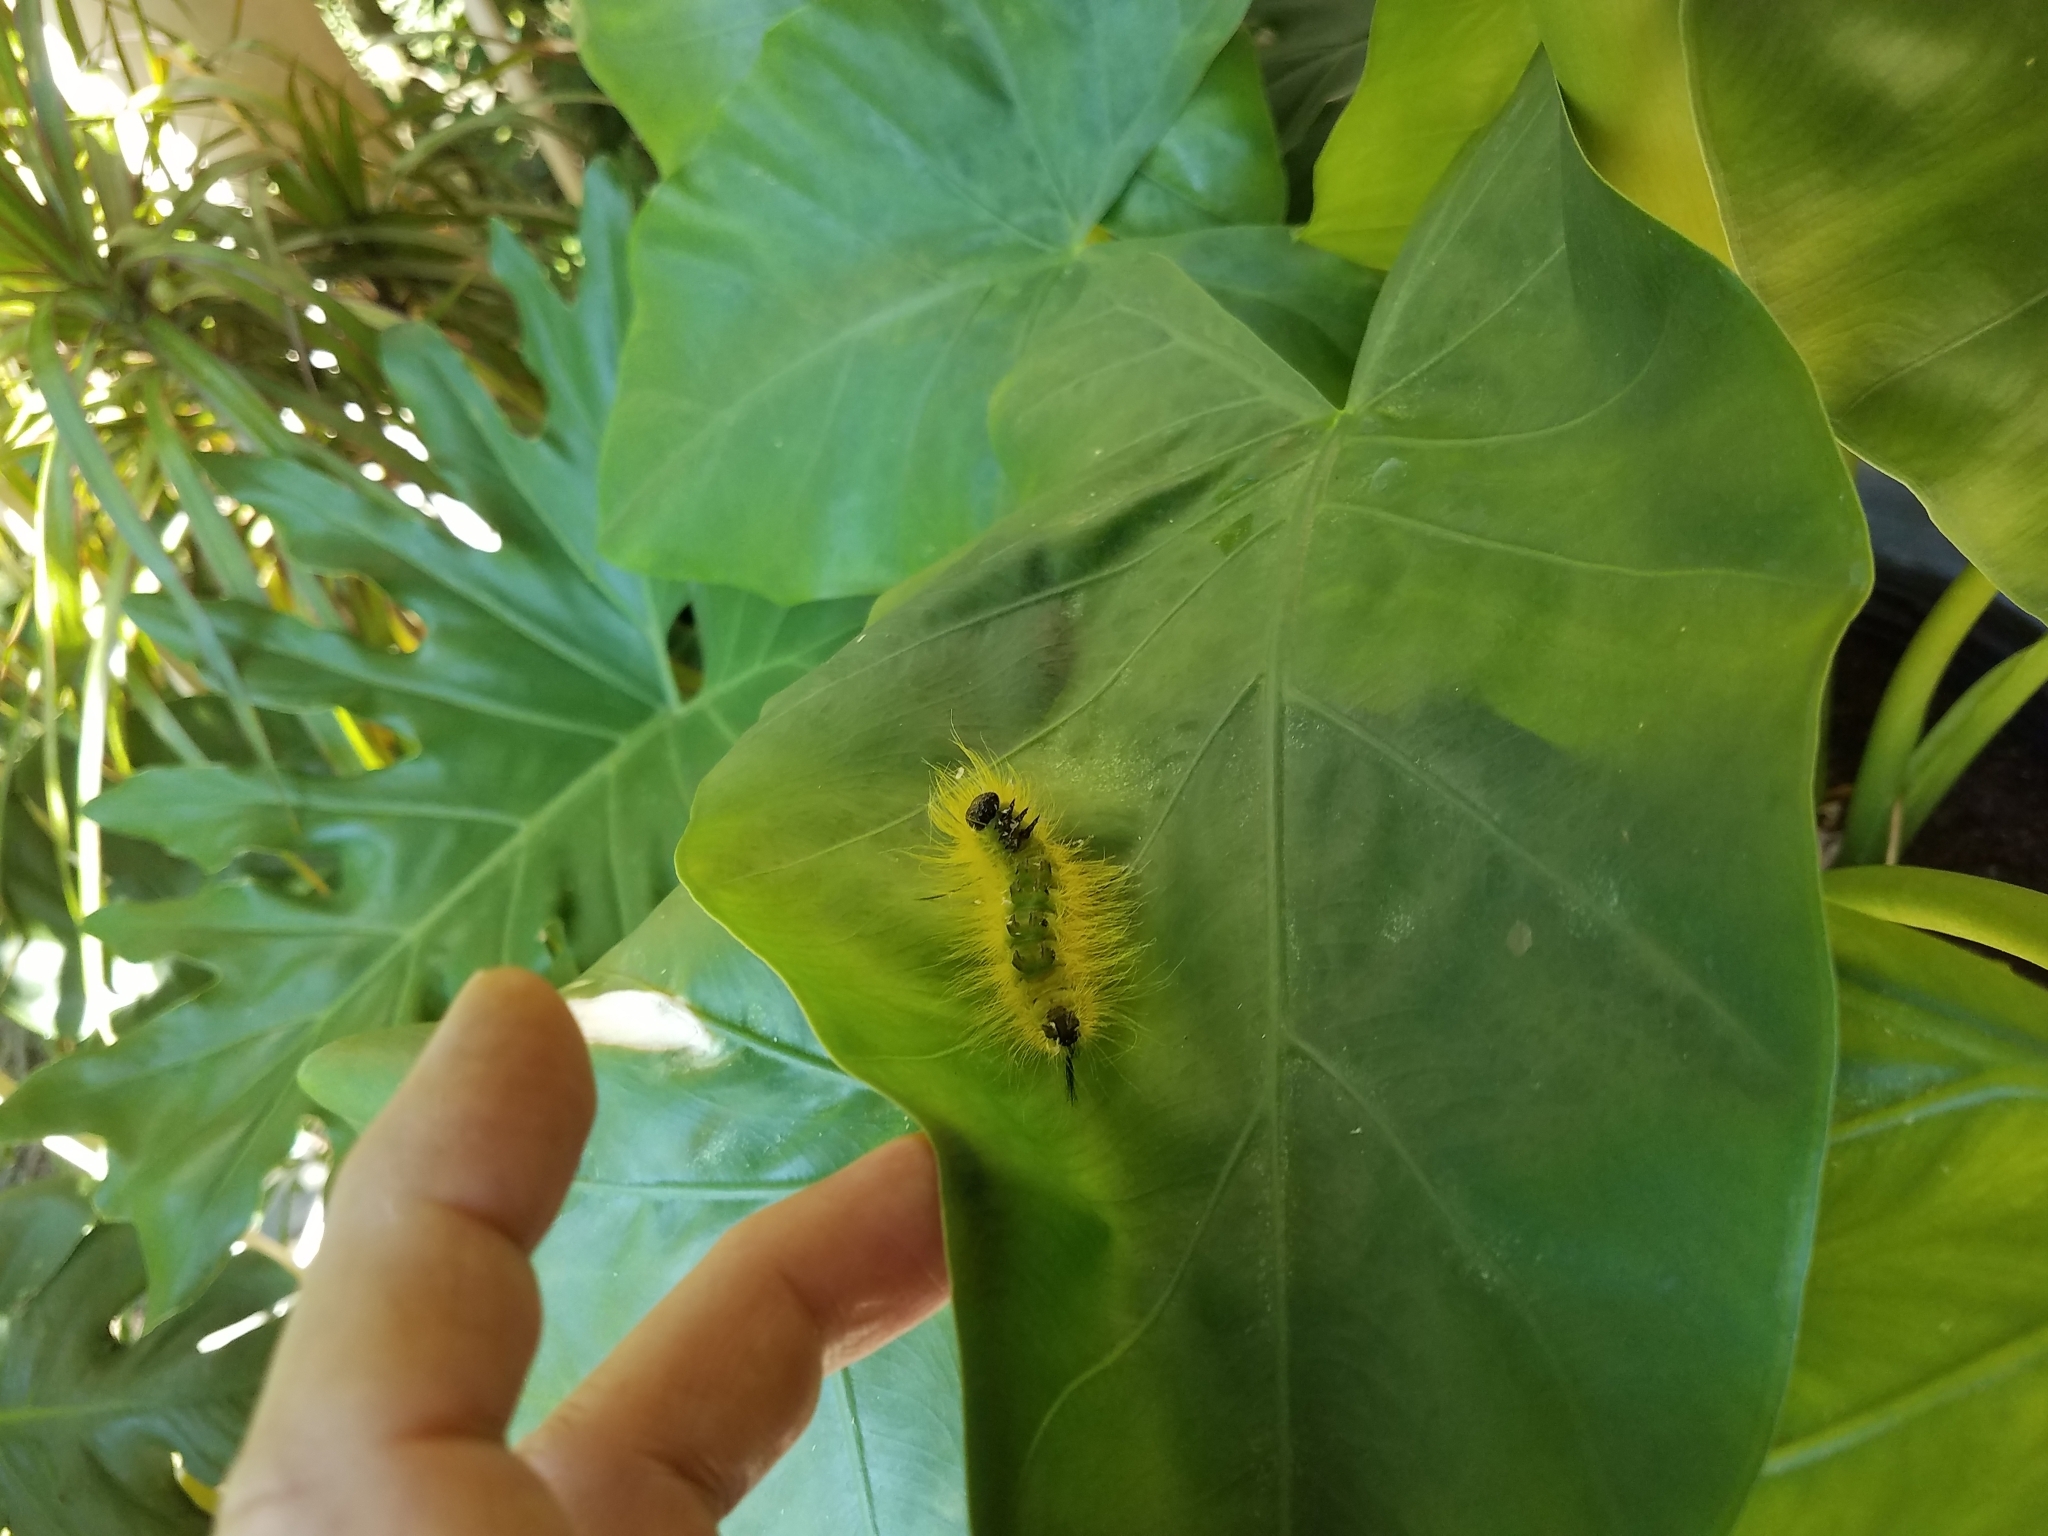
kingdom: Animalia
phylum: Arthropoda
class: Insecta
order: Lepidoptera
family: Noctuidae
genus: Acronicta
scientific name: Acronicta americana
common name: American dagger
